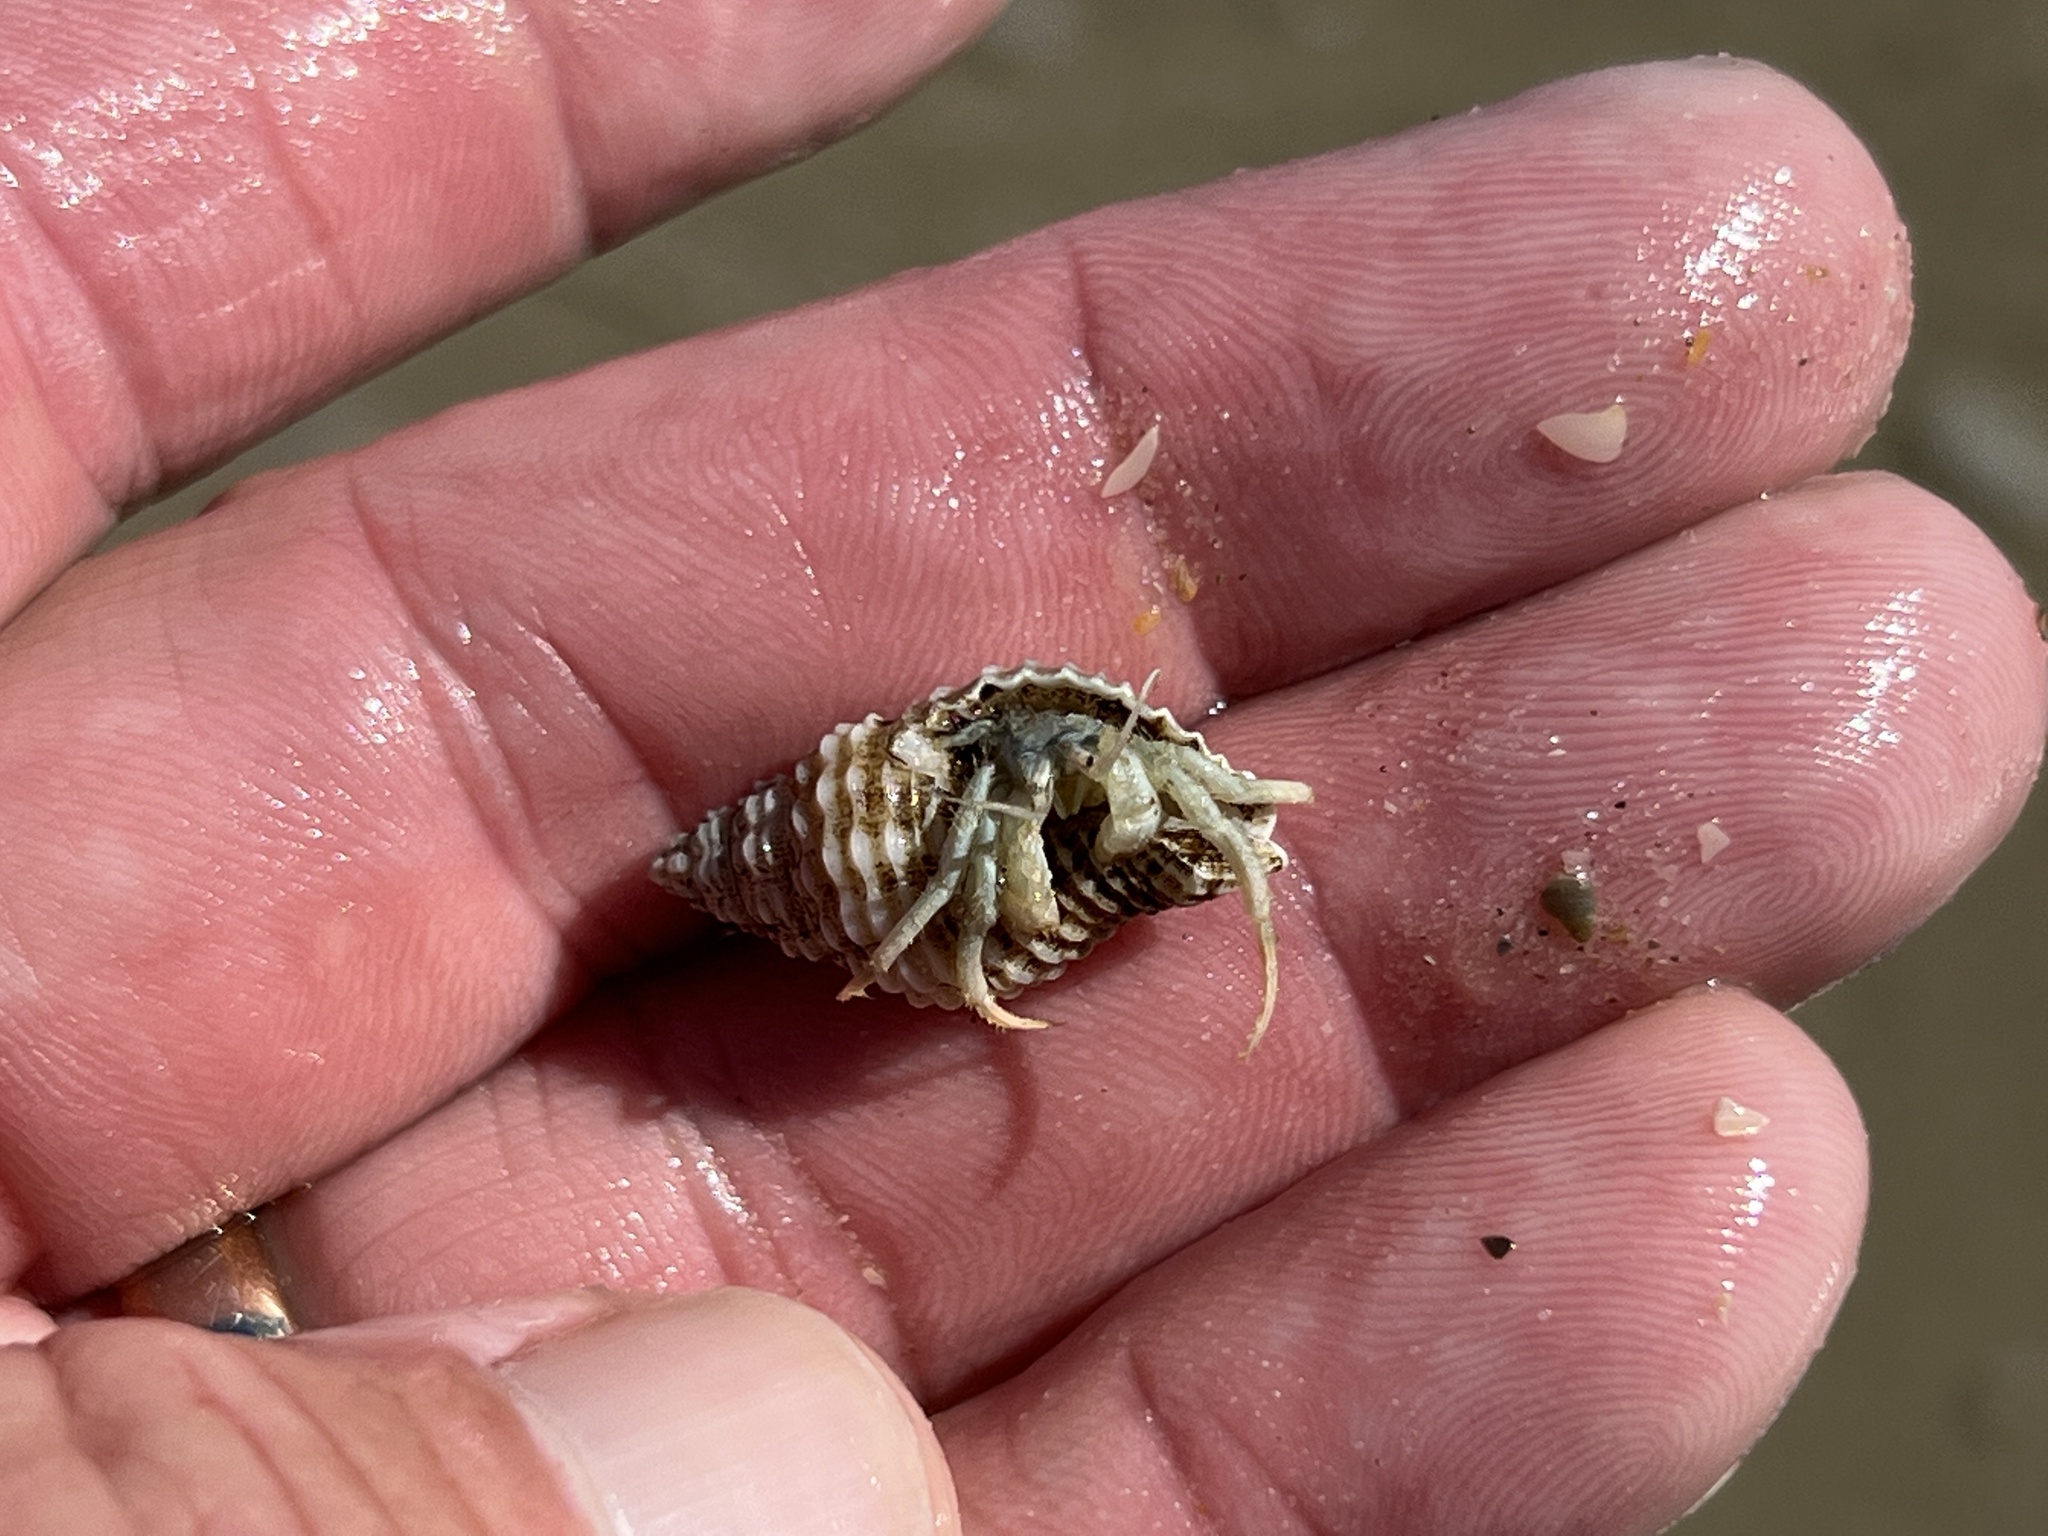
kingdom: Animalia
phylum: Arthropoda
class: Malacostraca
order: Decapoda
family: Diogenidae
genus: Isocheles
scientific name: Isocheles wurdemanni
